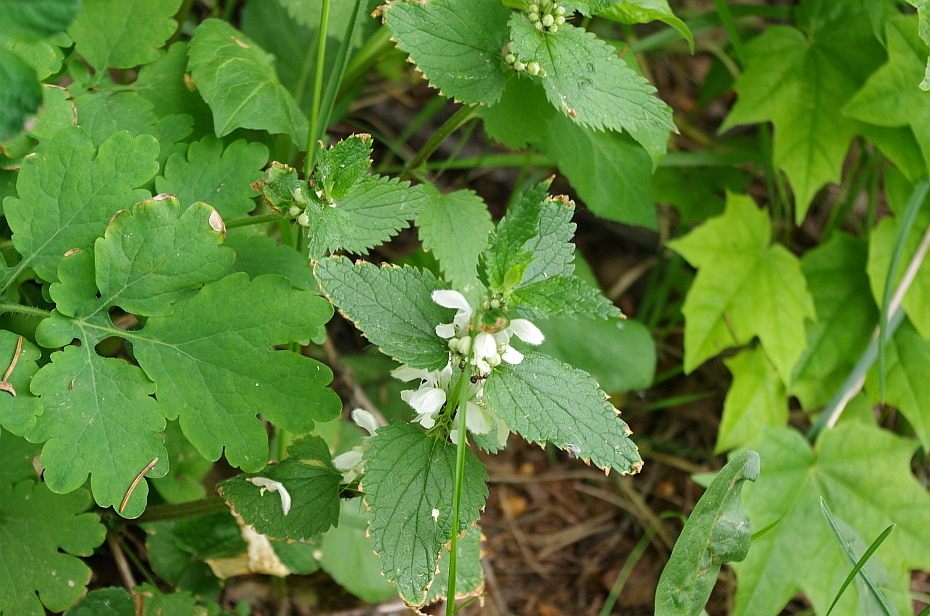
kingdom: Plantae
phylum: Tracheophyta
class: Magnoliopsida
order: Lamiales
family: Lamiaceae
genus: Lamium
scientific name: Lamium album
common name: White dead-nettle
